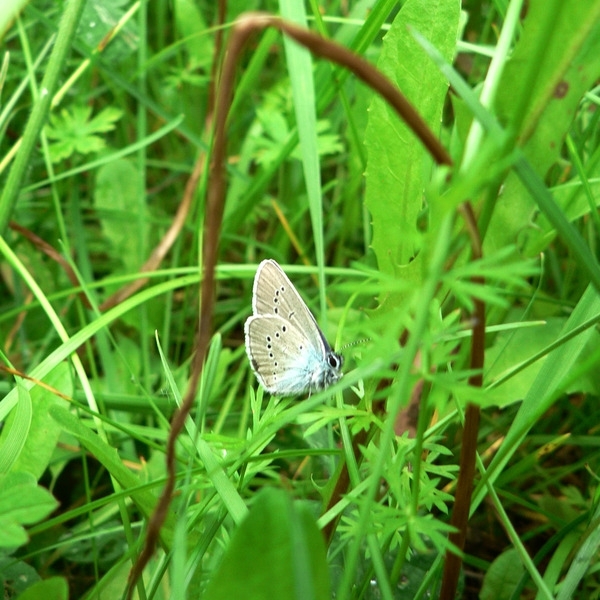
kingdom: Animalia
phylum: Arthropoda
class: Insecta
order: Lepidoptera
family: Lycaenidae
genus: Cyaniris
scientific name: Cyaniris semiargus
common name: Mazarine blue
